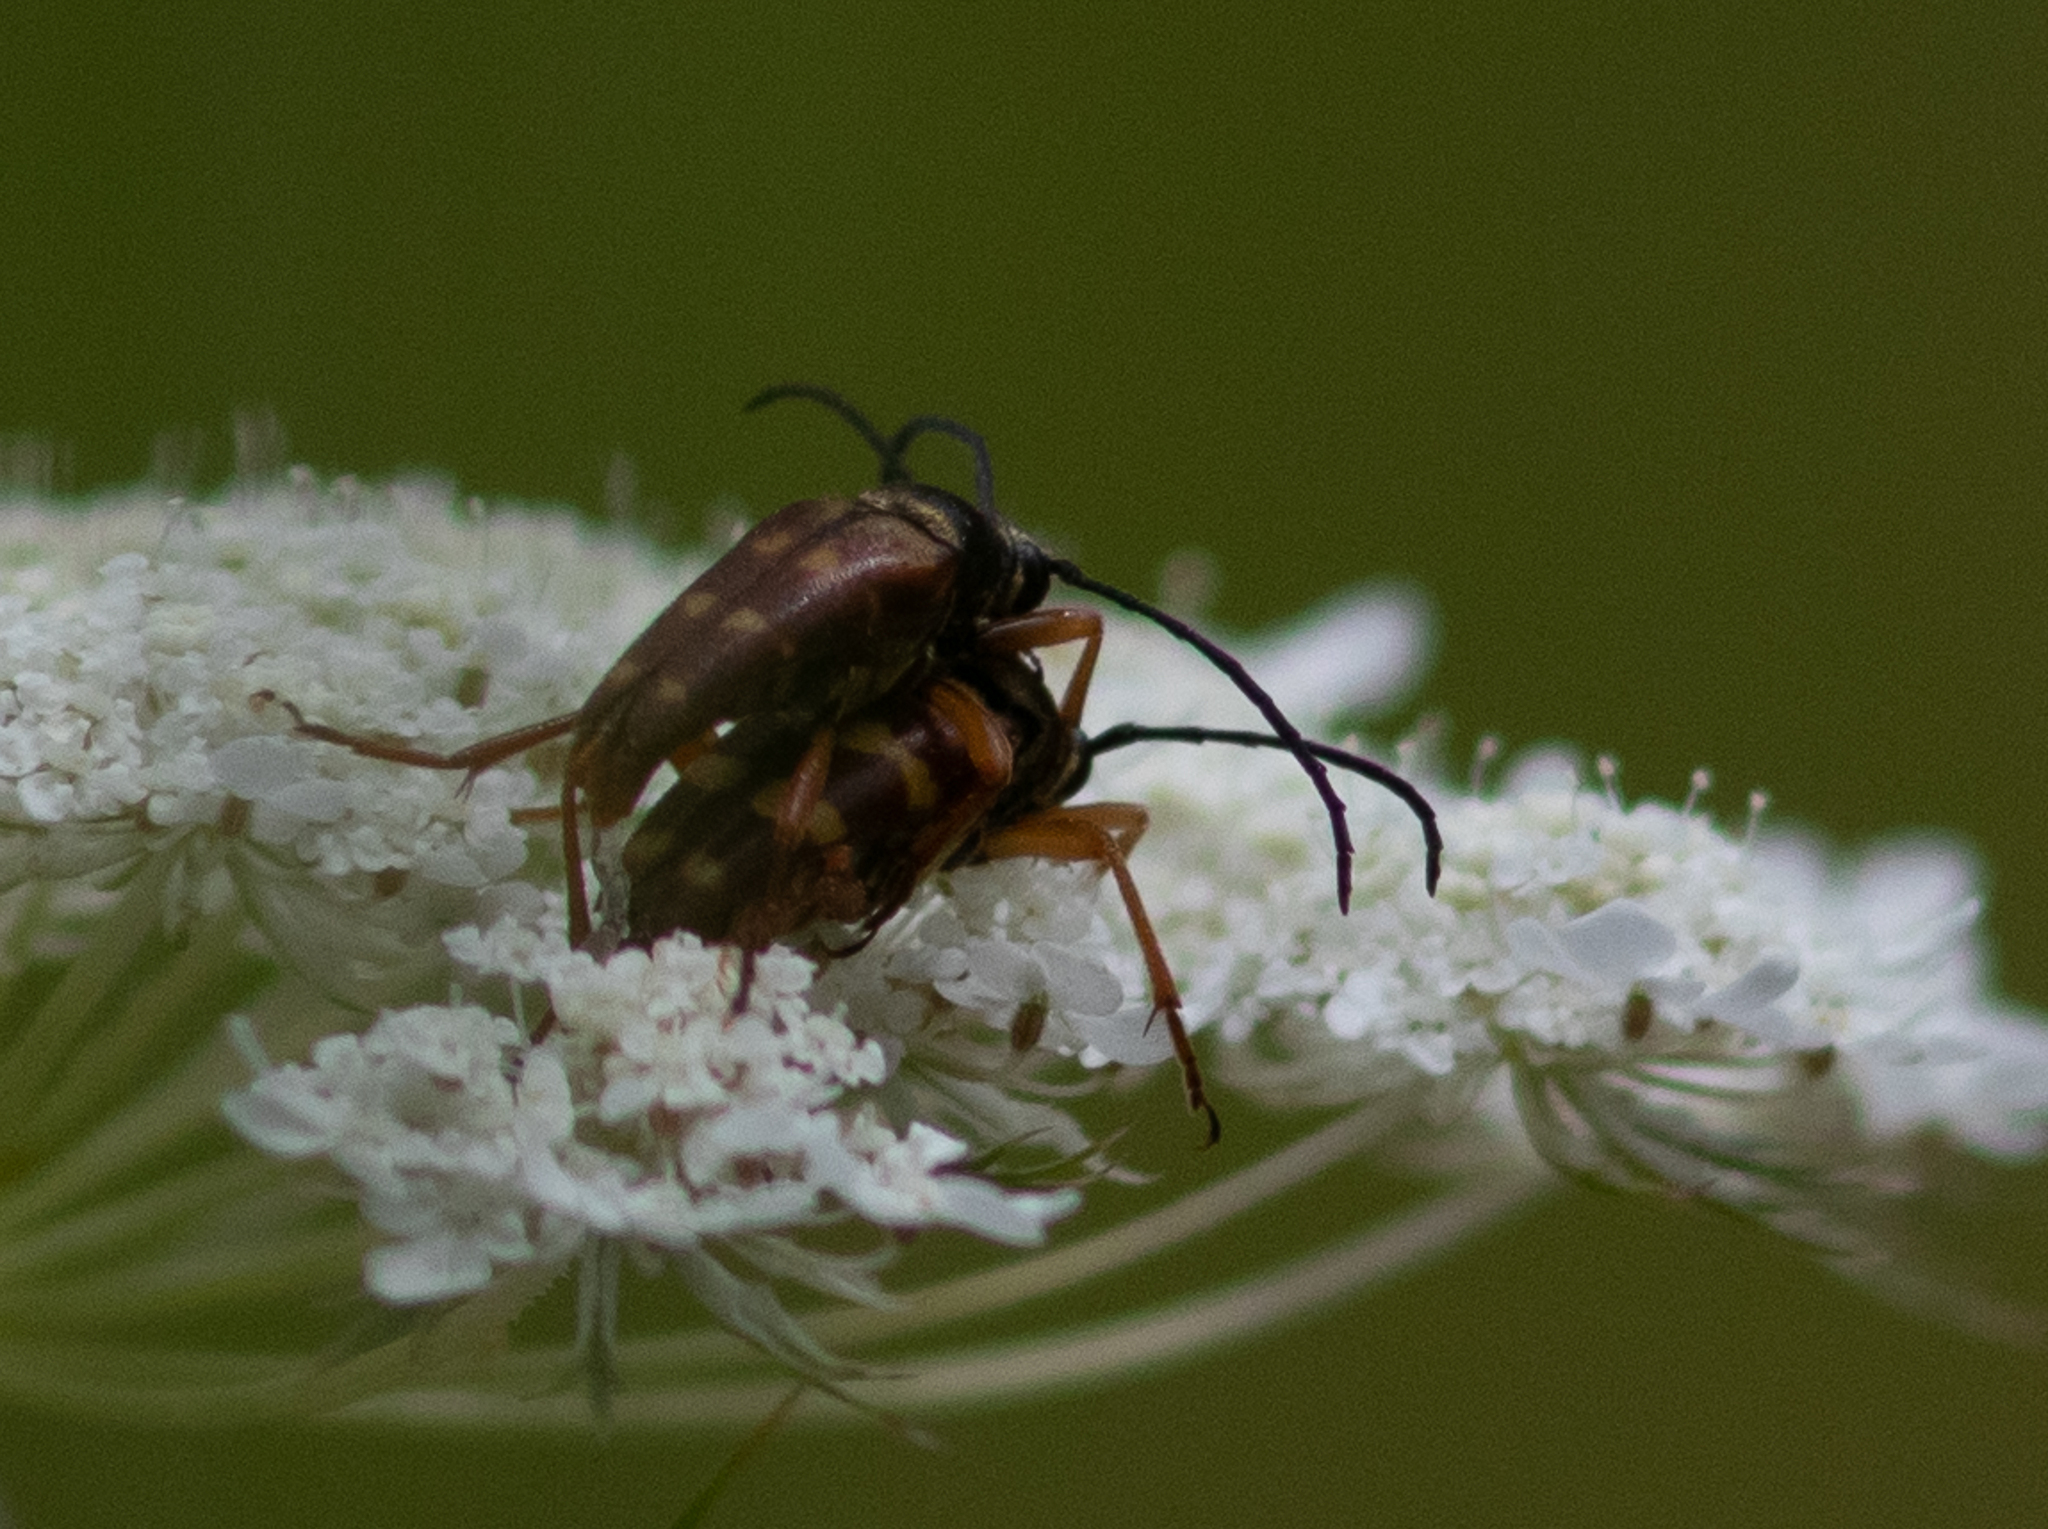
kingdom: Animalia
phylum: Arthropoda
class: Insecta
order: Coleoptera
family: Cerambycidae
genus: Typocerus
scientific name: Typocerus velutinus
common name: Banded longhorn beetle
